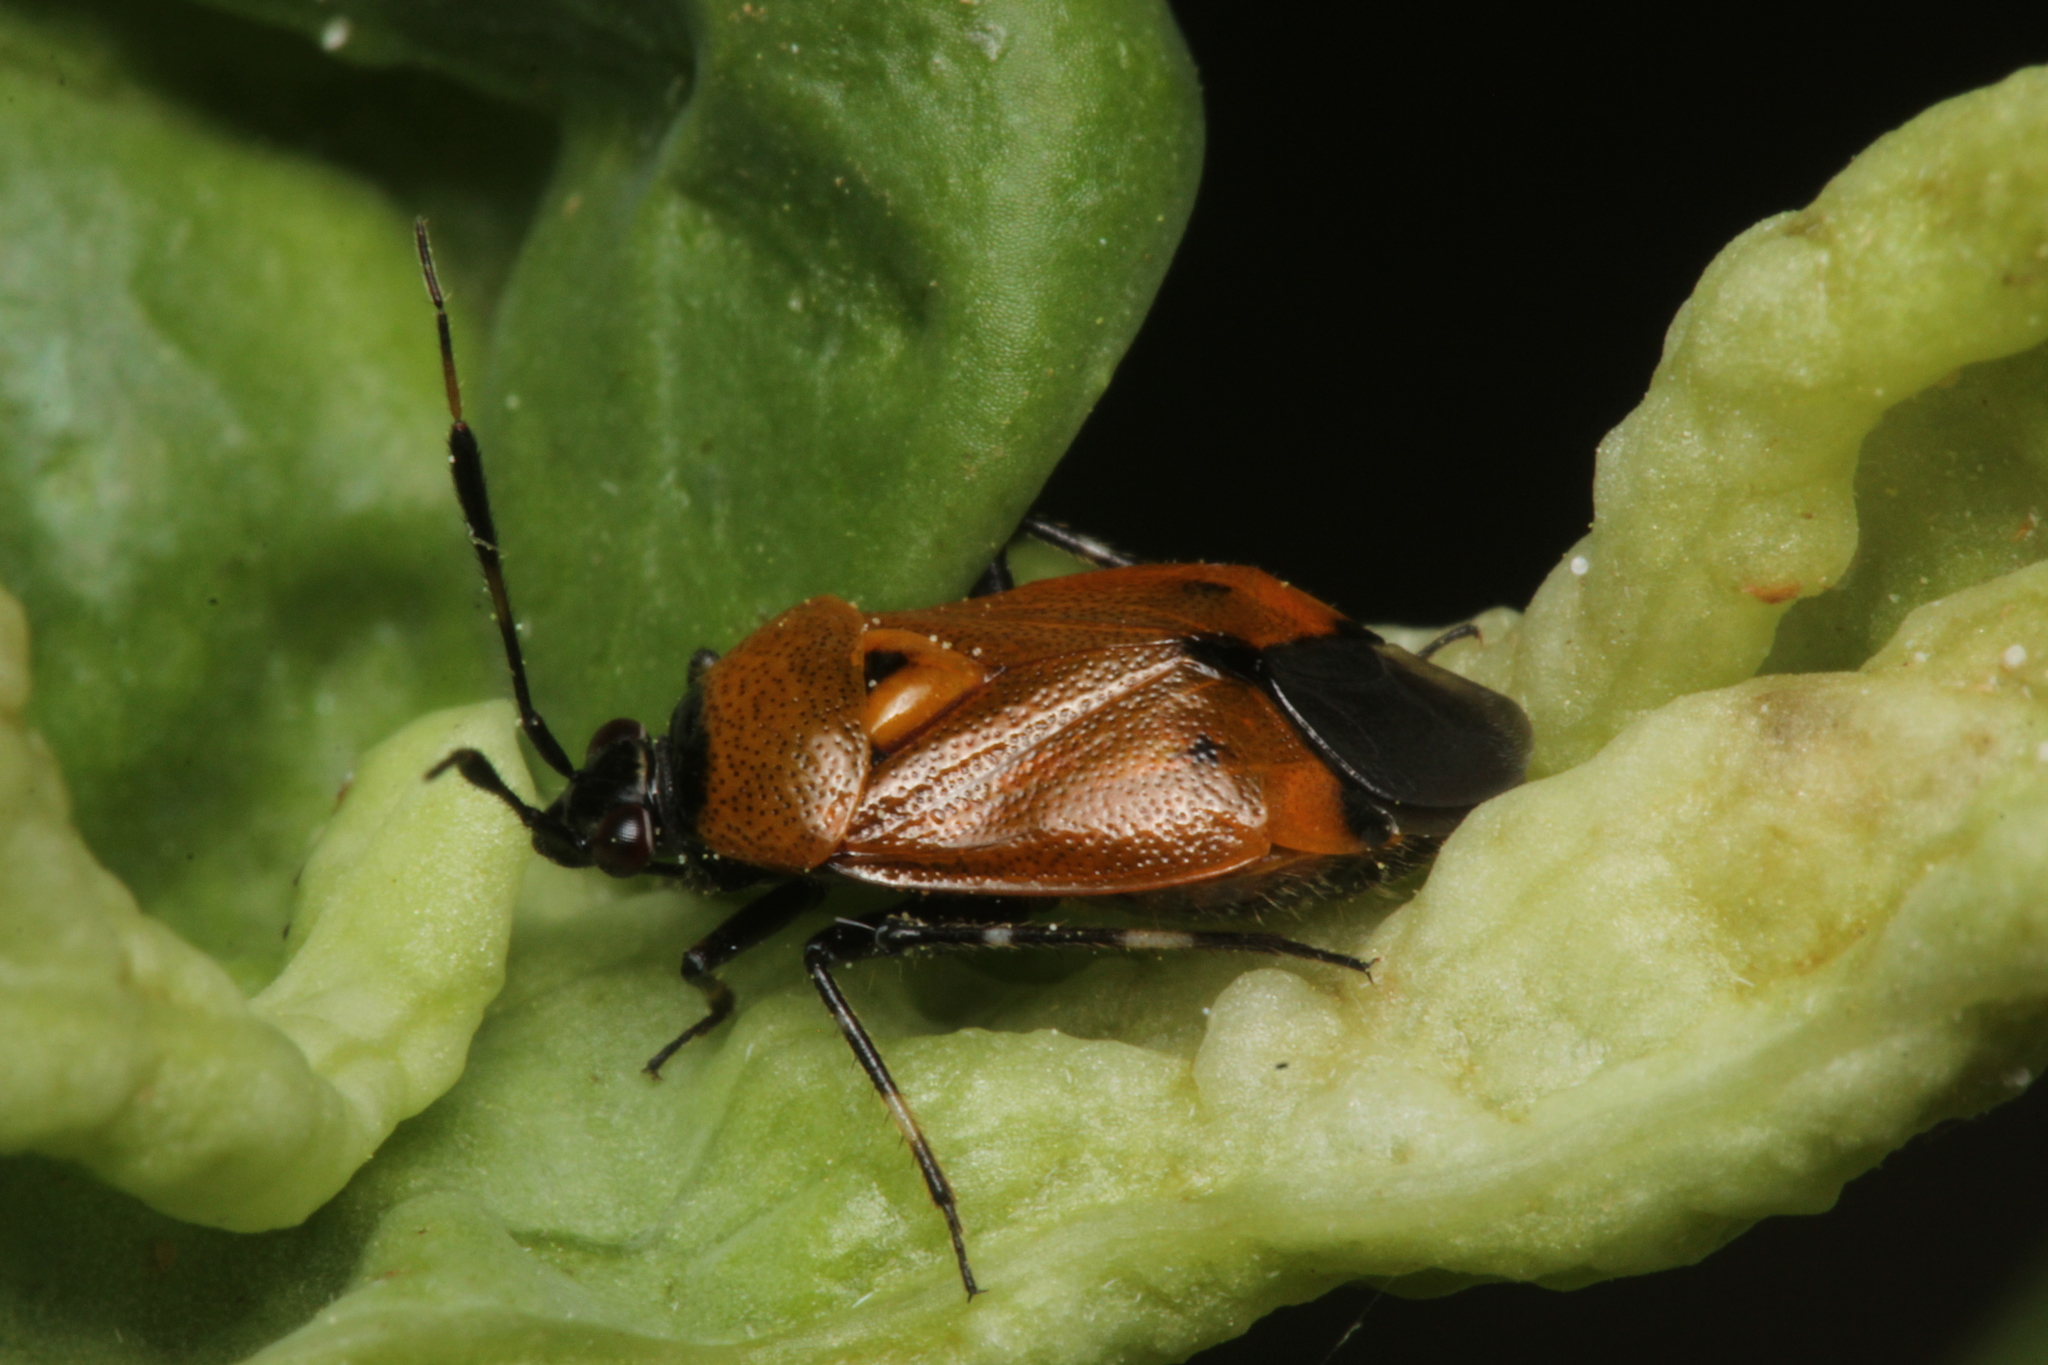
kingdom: Animalia
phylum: Arthropoda
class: Insecta
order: Hemiptera
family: Miridae
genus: Deraeocoris
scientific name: Deraeocoris punctum
